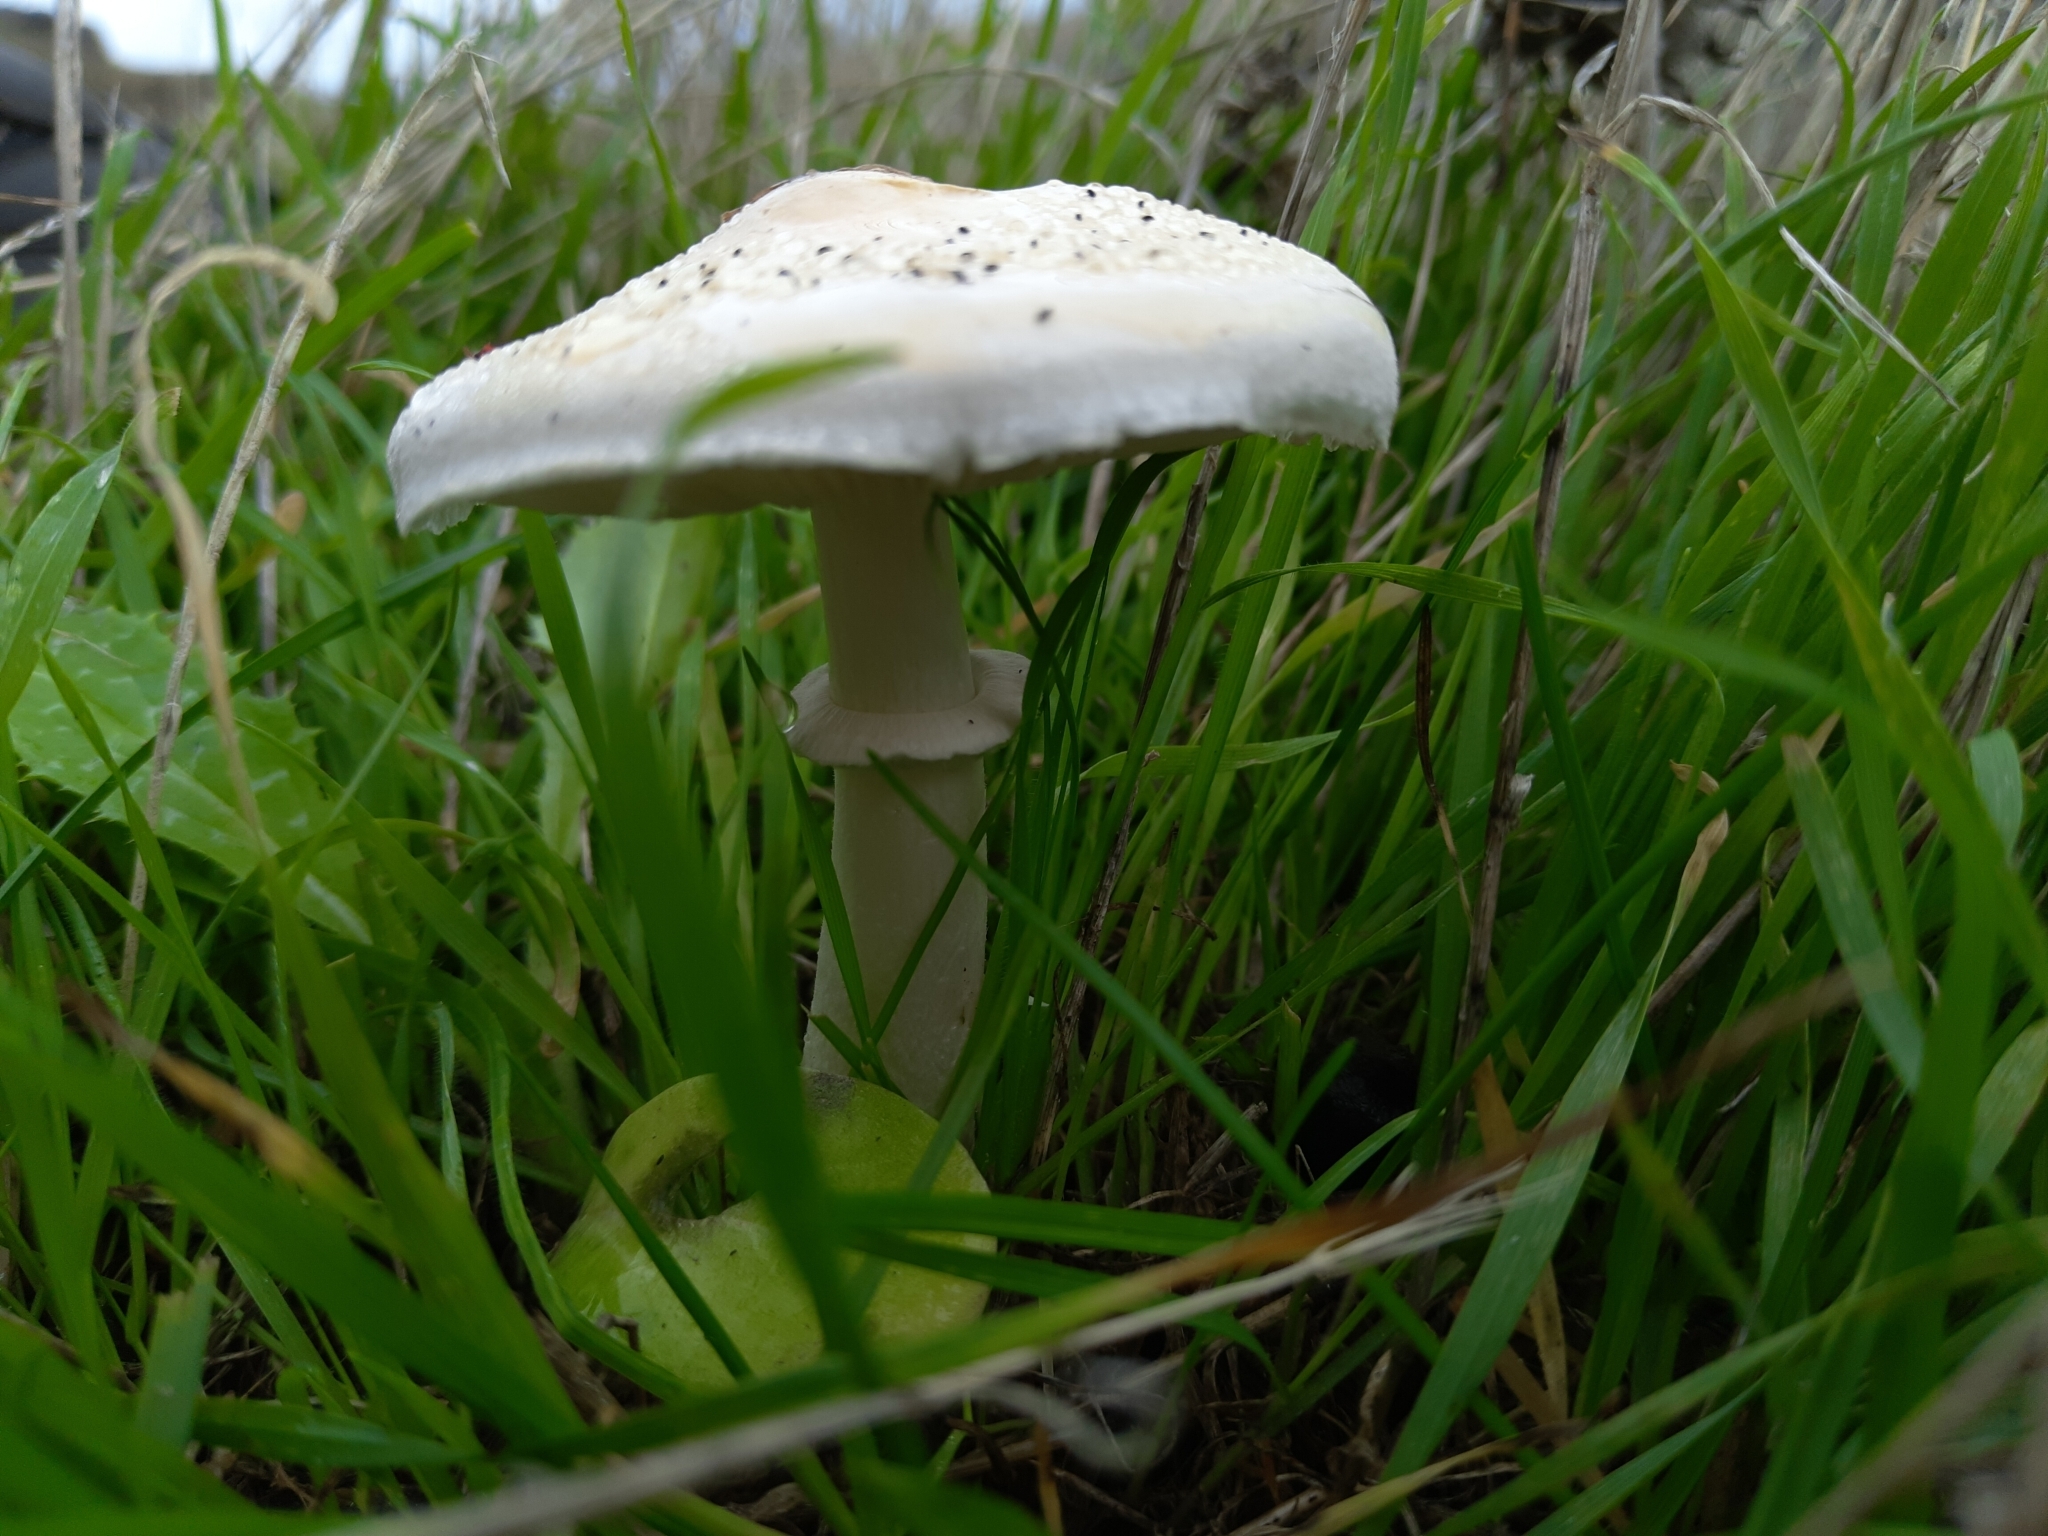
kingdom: Fungi
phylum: Basidiomycota
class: Agaricomycetes
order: Agaricales
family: Agaricaceae
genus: Leucoagaricus
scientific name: Leucoagaricus leucothites
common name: White dapperling
